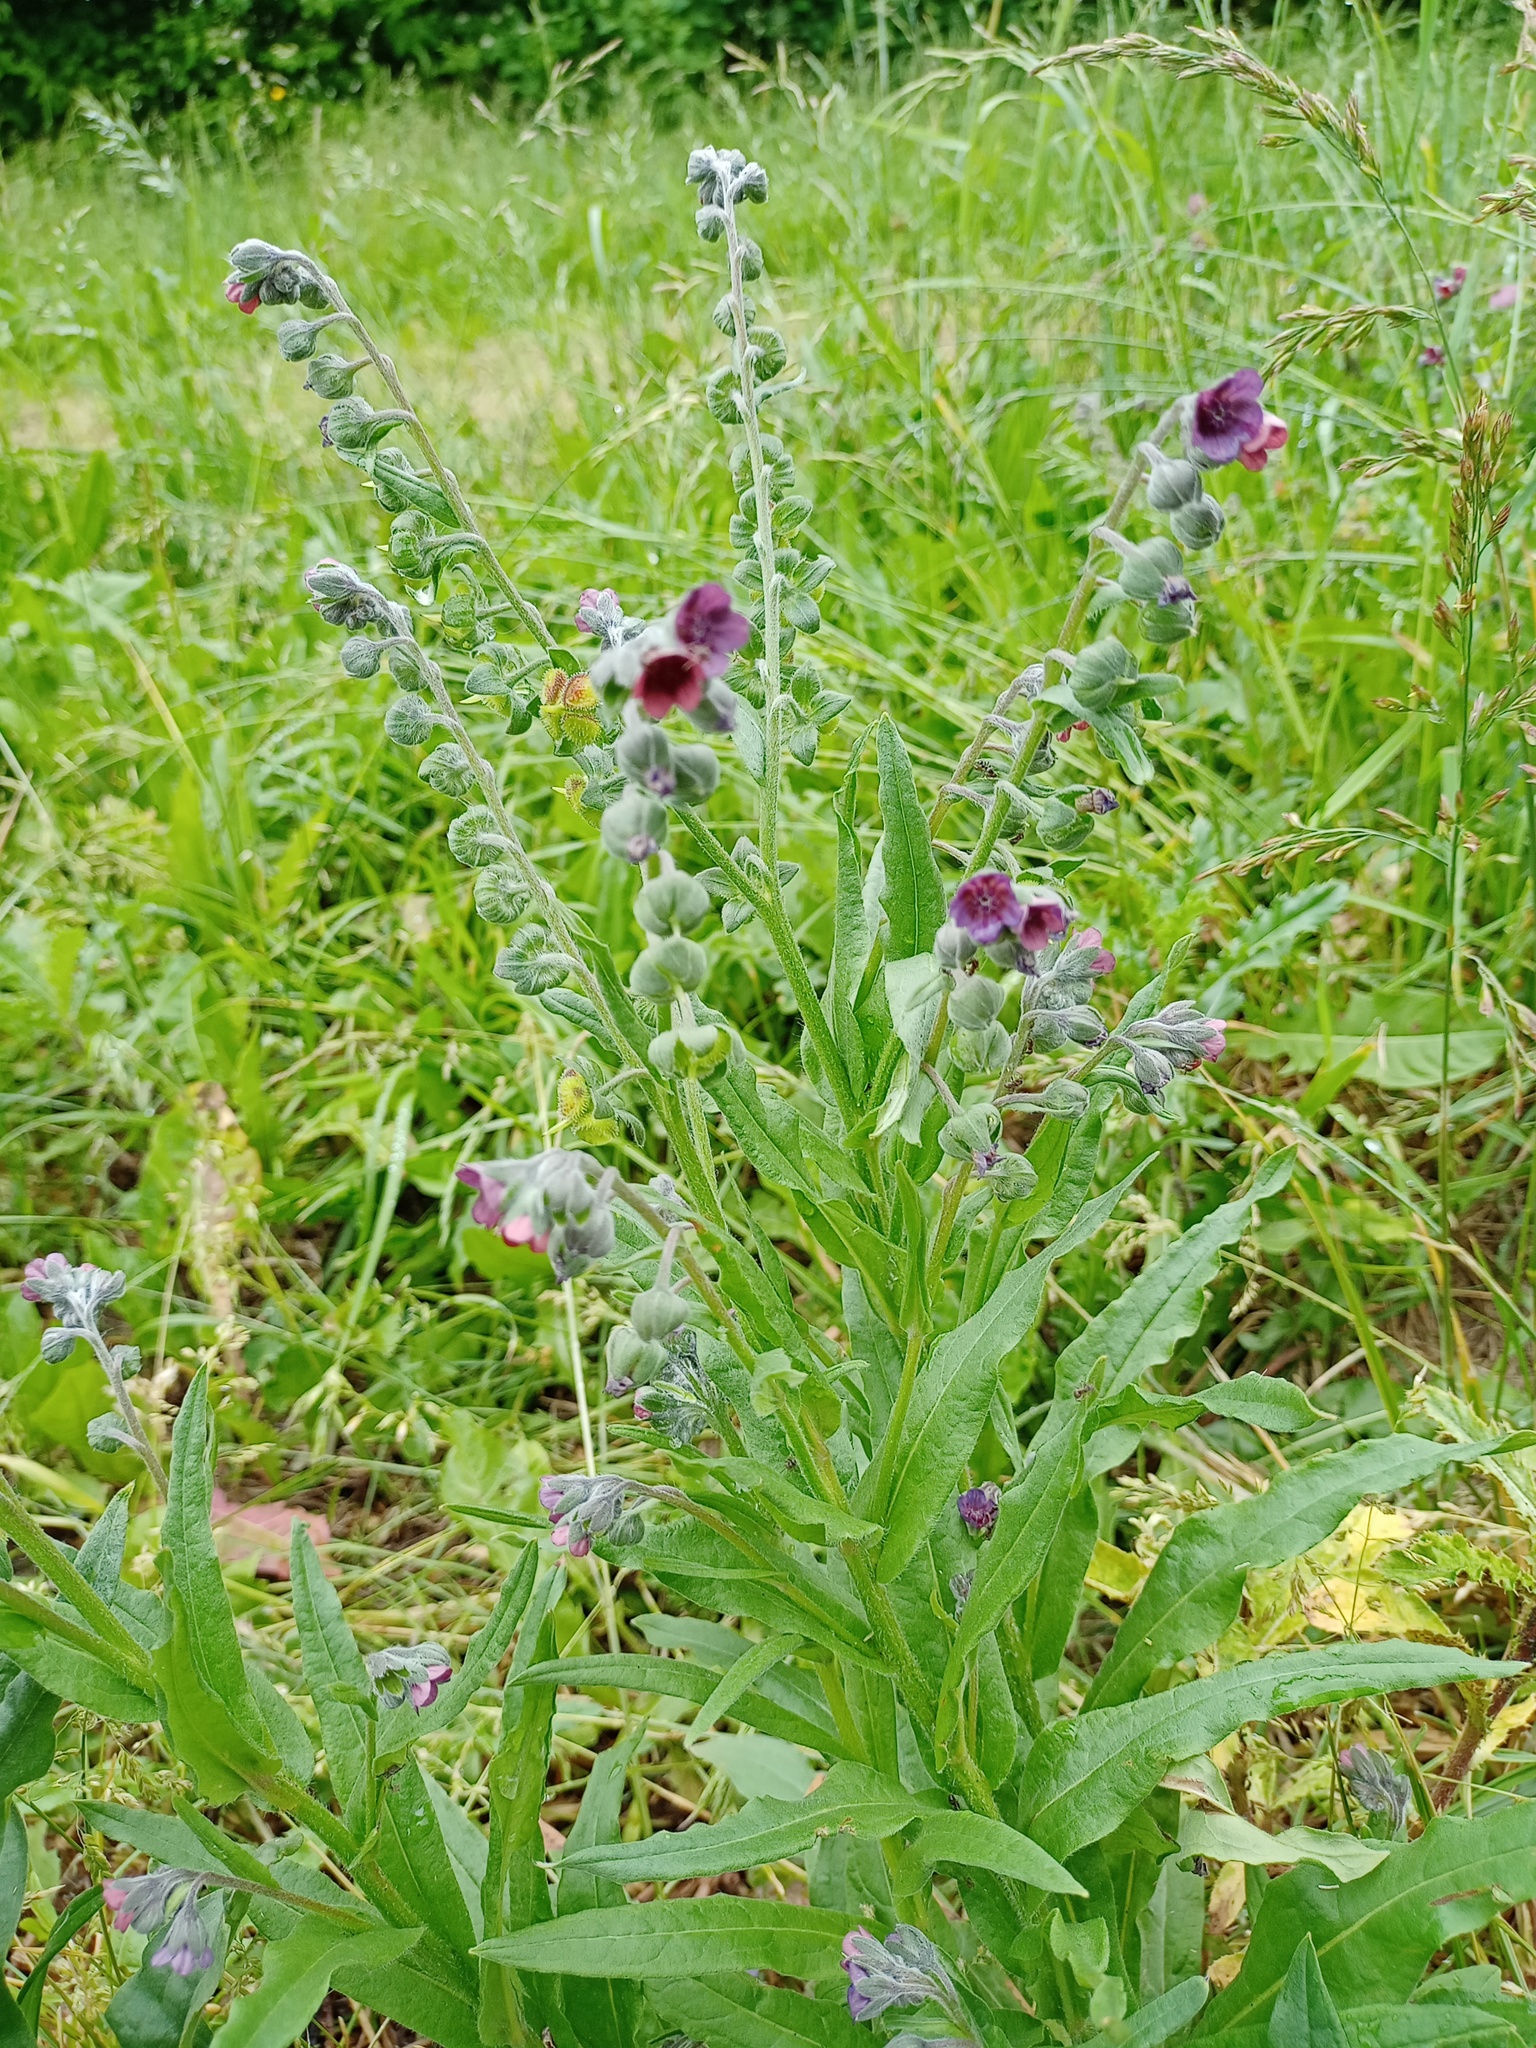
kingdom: Plantae
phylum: Tracheophyta
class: Magnoliopsida
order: Boraginales
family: Boraginaceae
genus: Cynoglossum
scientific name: Cynoglossum officinale
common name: Hound's-tongue
